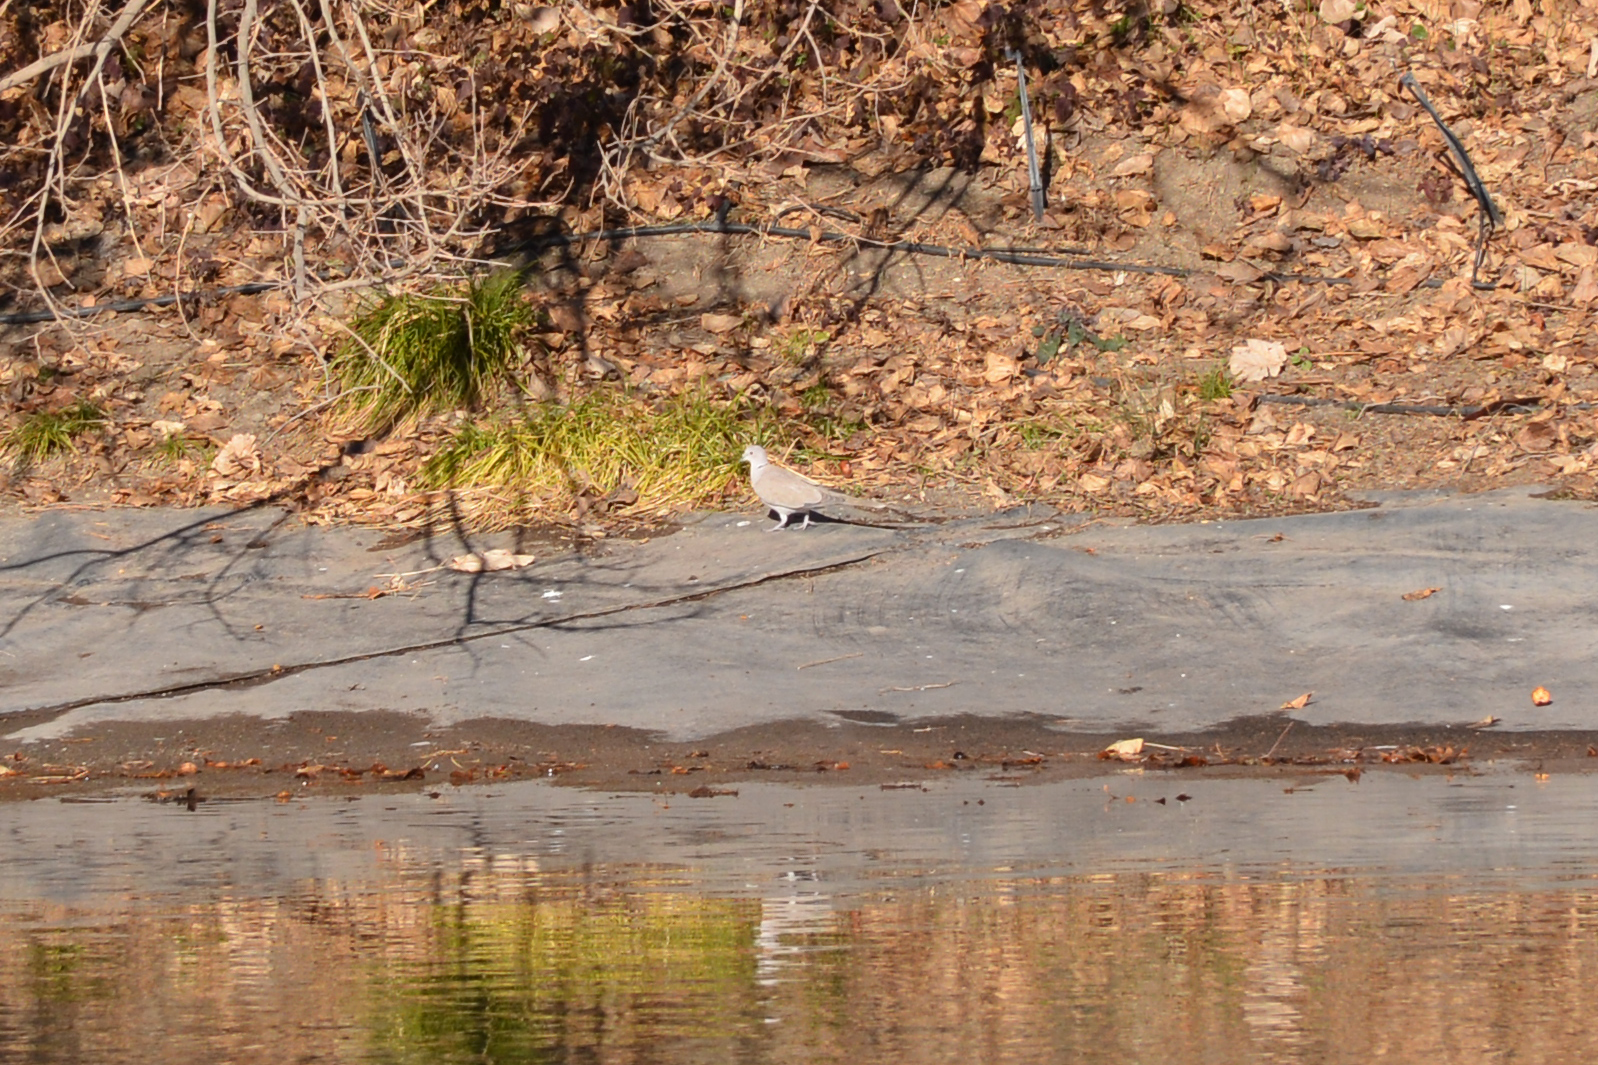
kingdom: Animalia
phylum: Chordata
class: Aves
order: Columbiformes
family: Columbidae
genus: Streptopelia
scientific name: Streptopelia decaocto
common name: Eurasian collared dove
